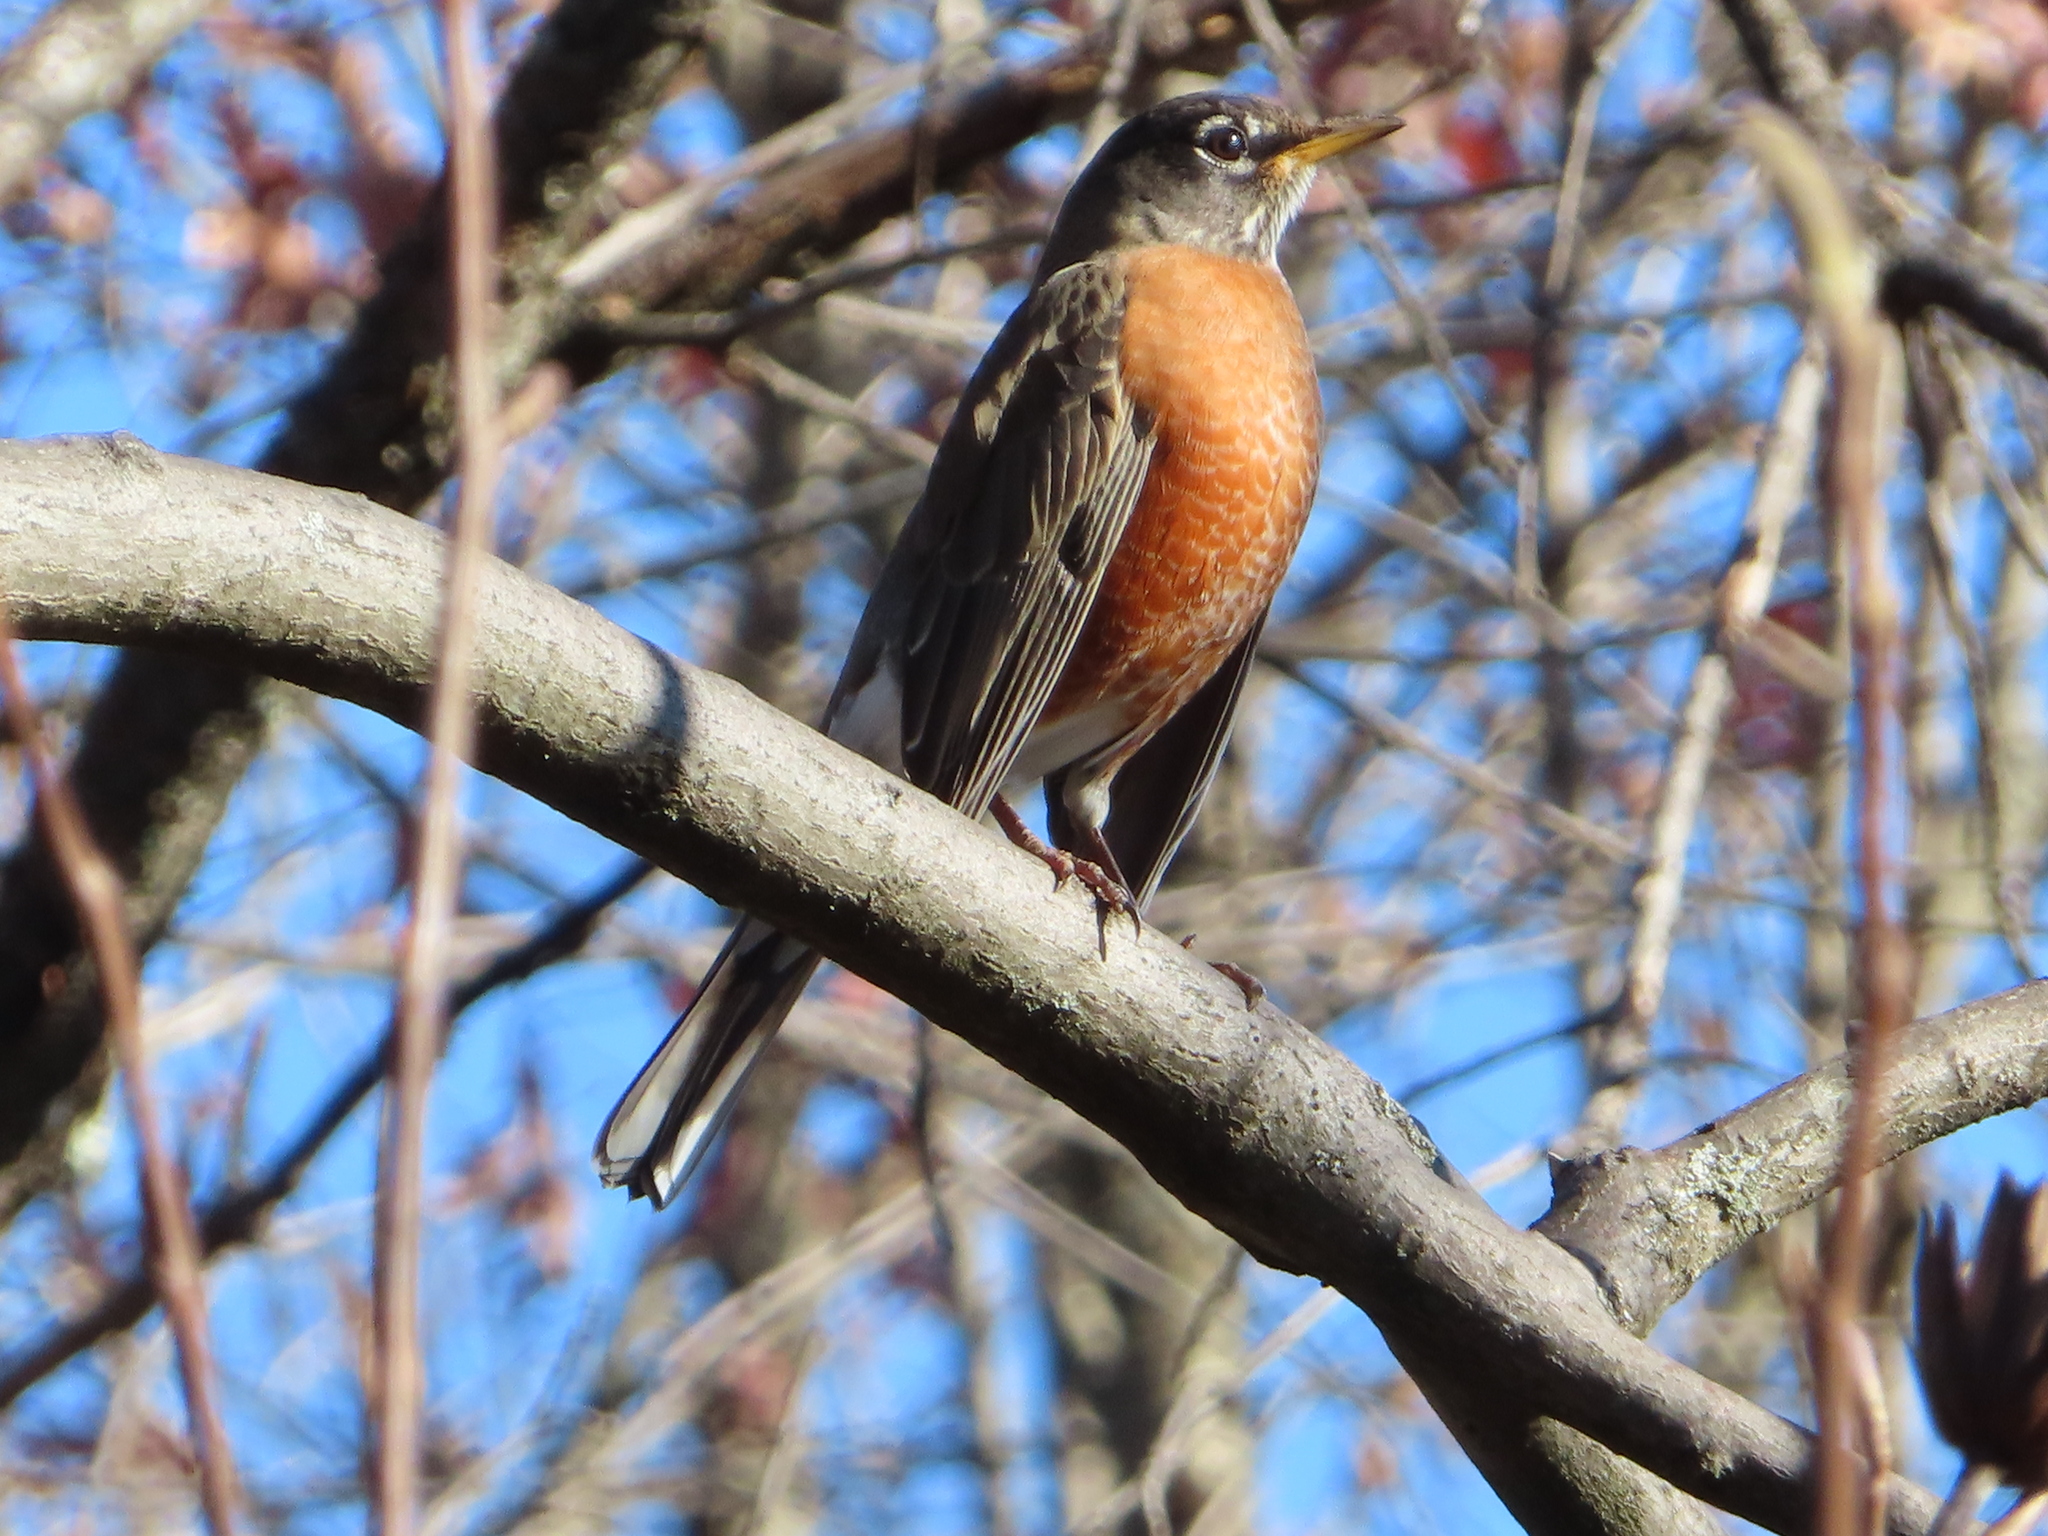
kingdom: Animalia
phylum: Chordata
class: Aves
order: Passeriformes
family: Turdidae
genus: Turdus
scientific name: Turdus migratorius
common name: American robin
